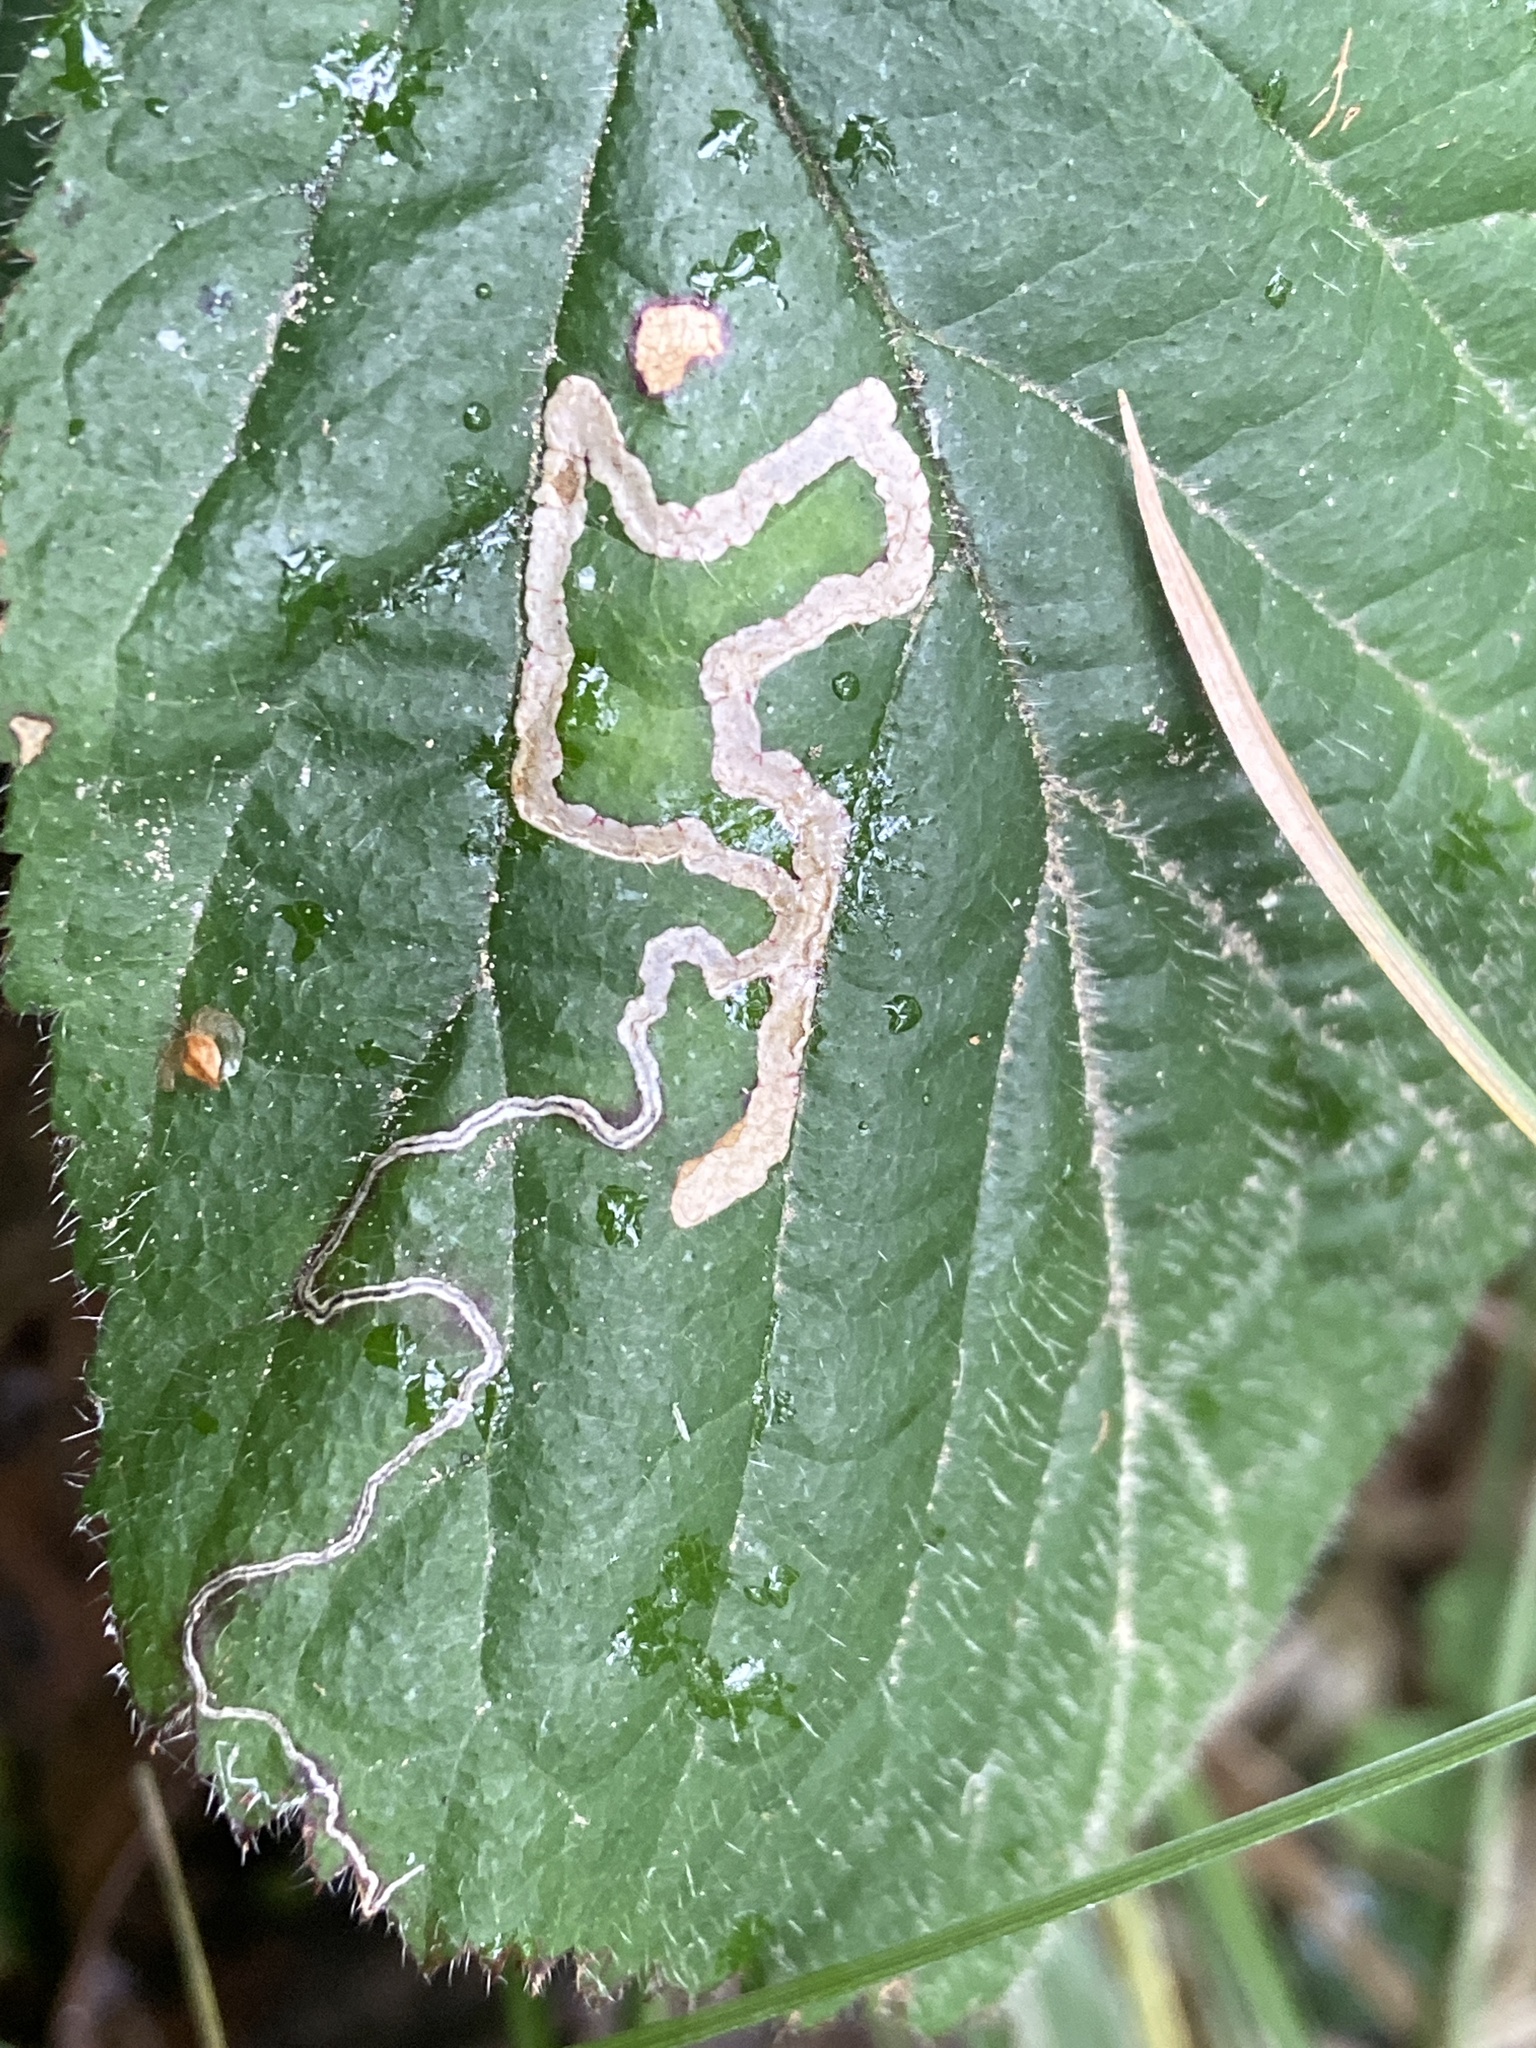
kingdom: Animalia
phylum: Arthropoda
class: Insecta
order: Lepidoptera
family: Nepticulidae
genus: Stigmella
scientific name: Stigmella aurella
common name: Golden pigmy
